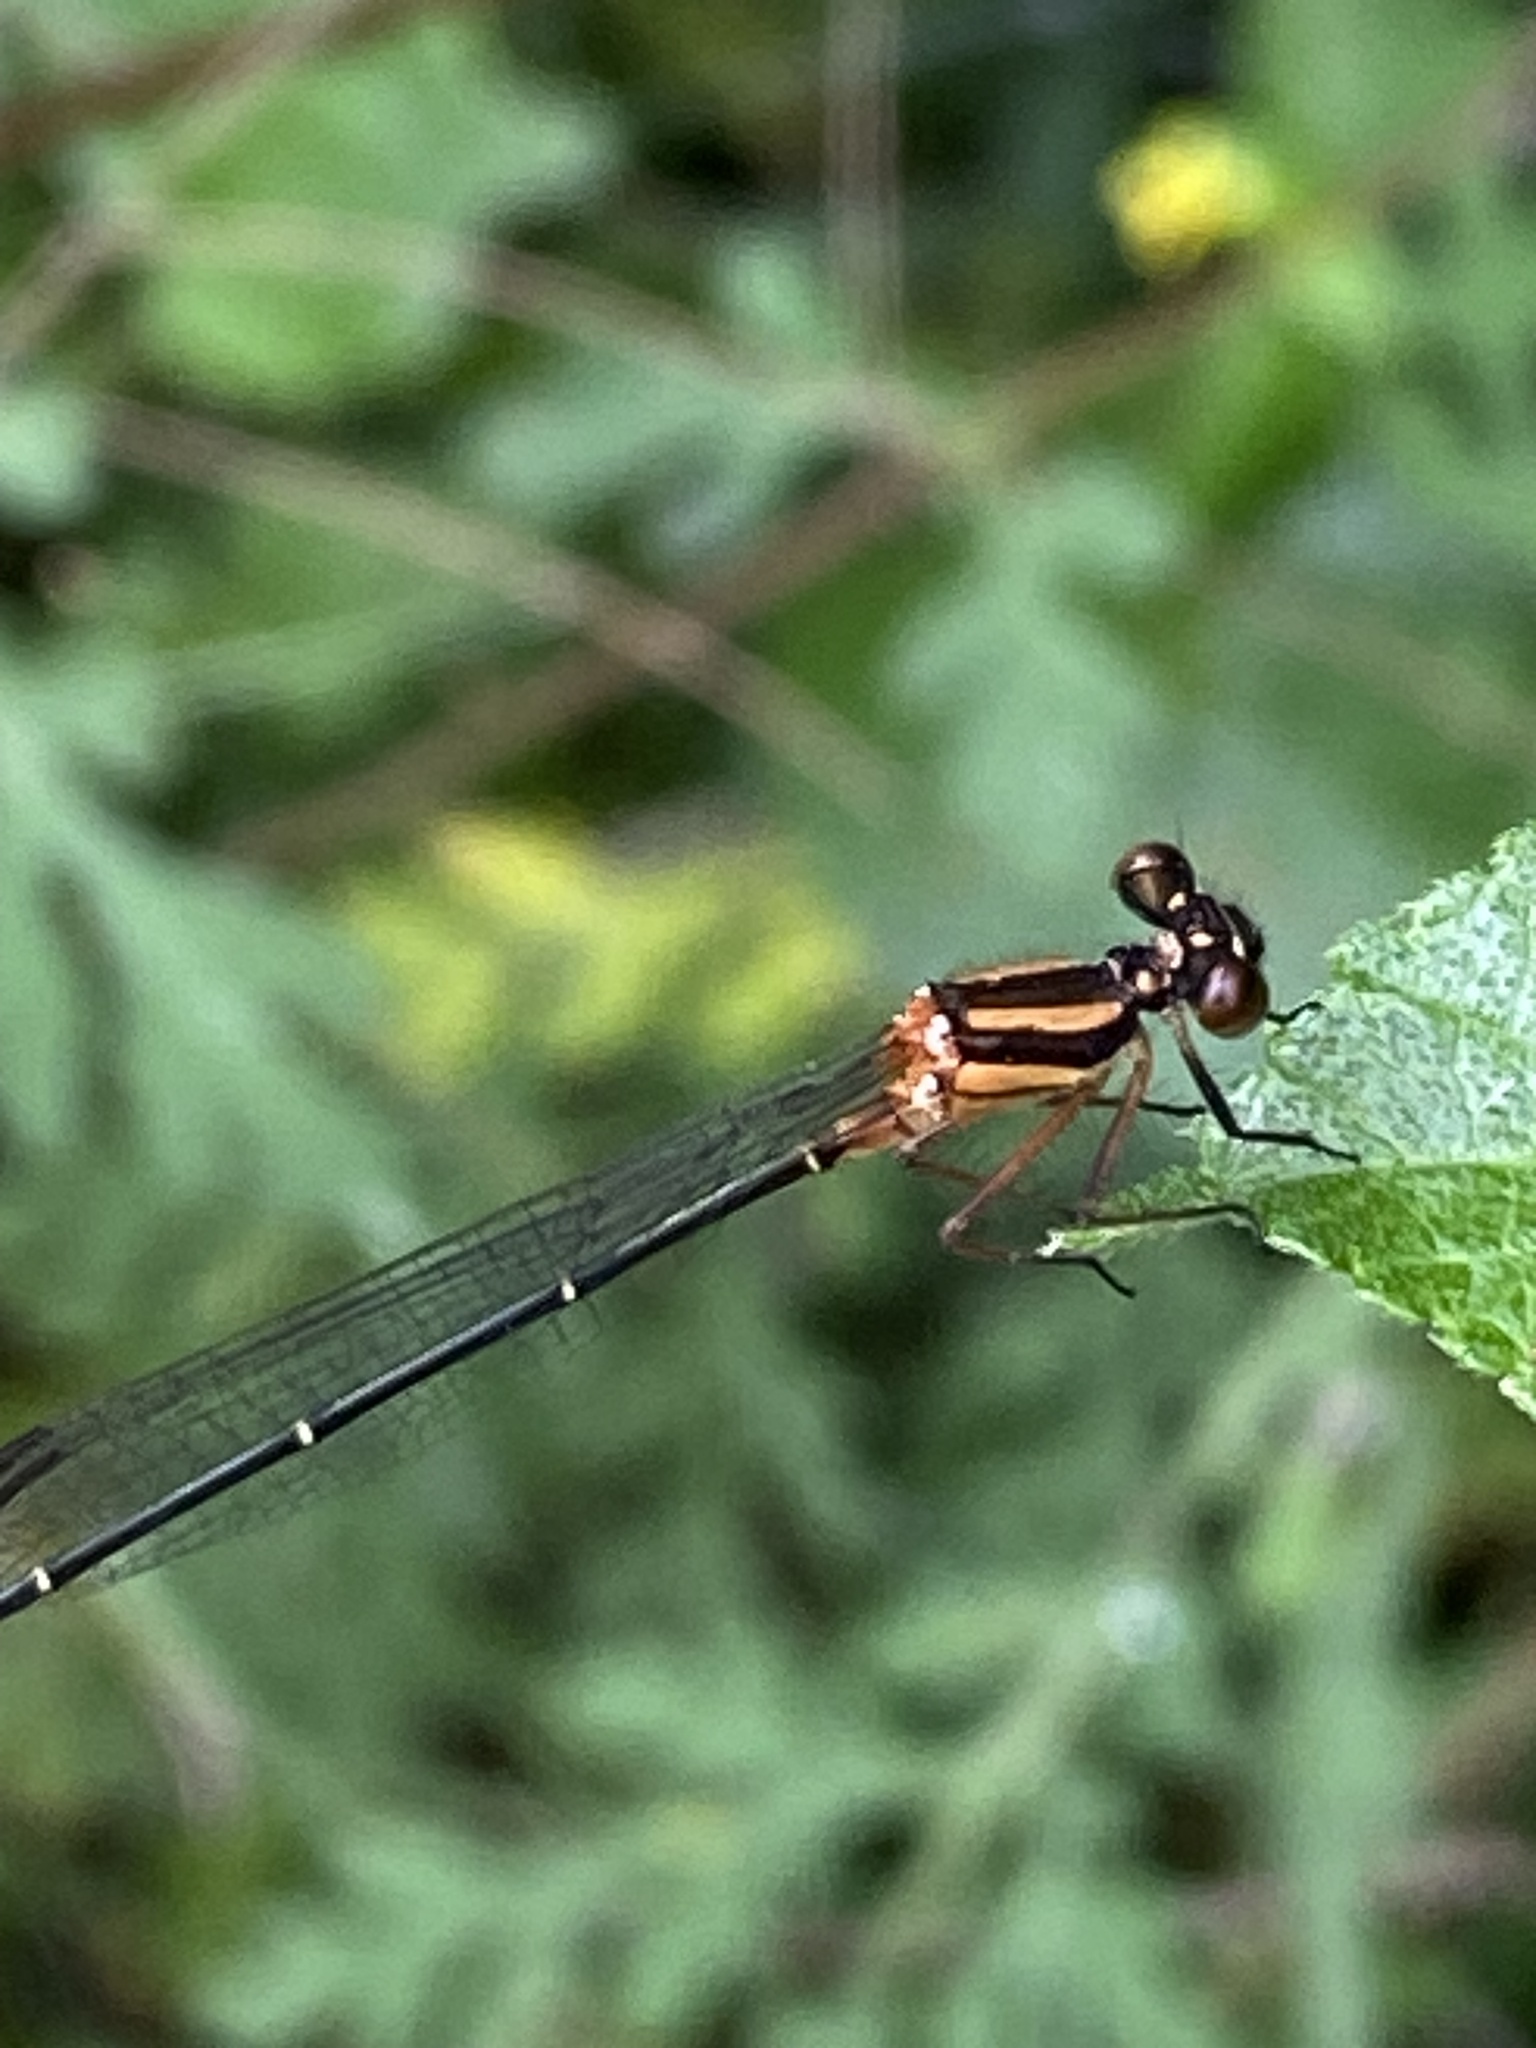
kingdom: Animalia
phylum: Arthropoda
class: Insecta
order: Odonata
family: Platycnemididae
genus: Nososticta
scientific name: Nososticta solida
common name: Orange threadtail
